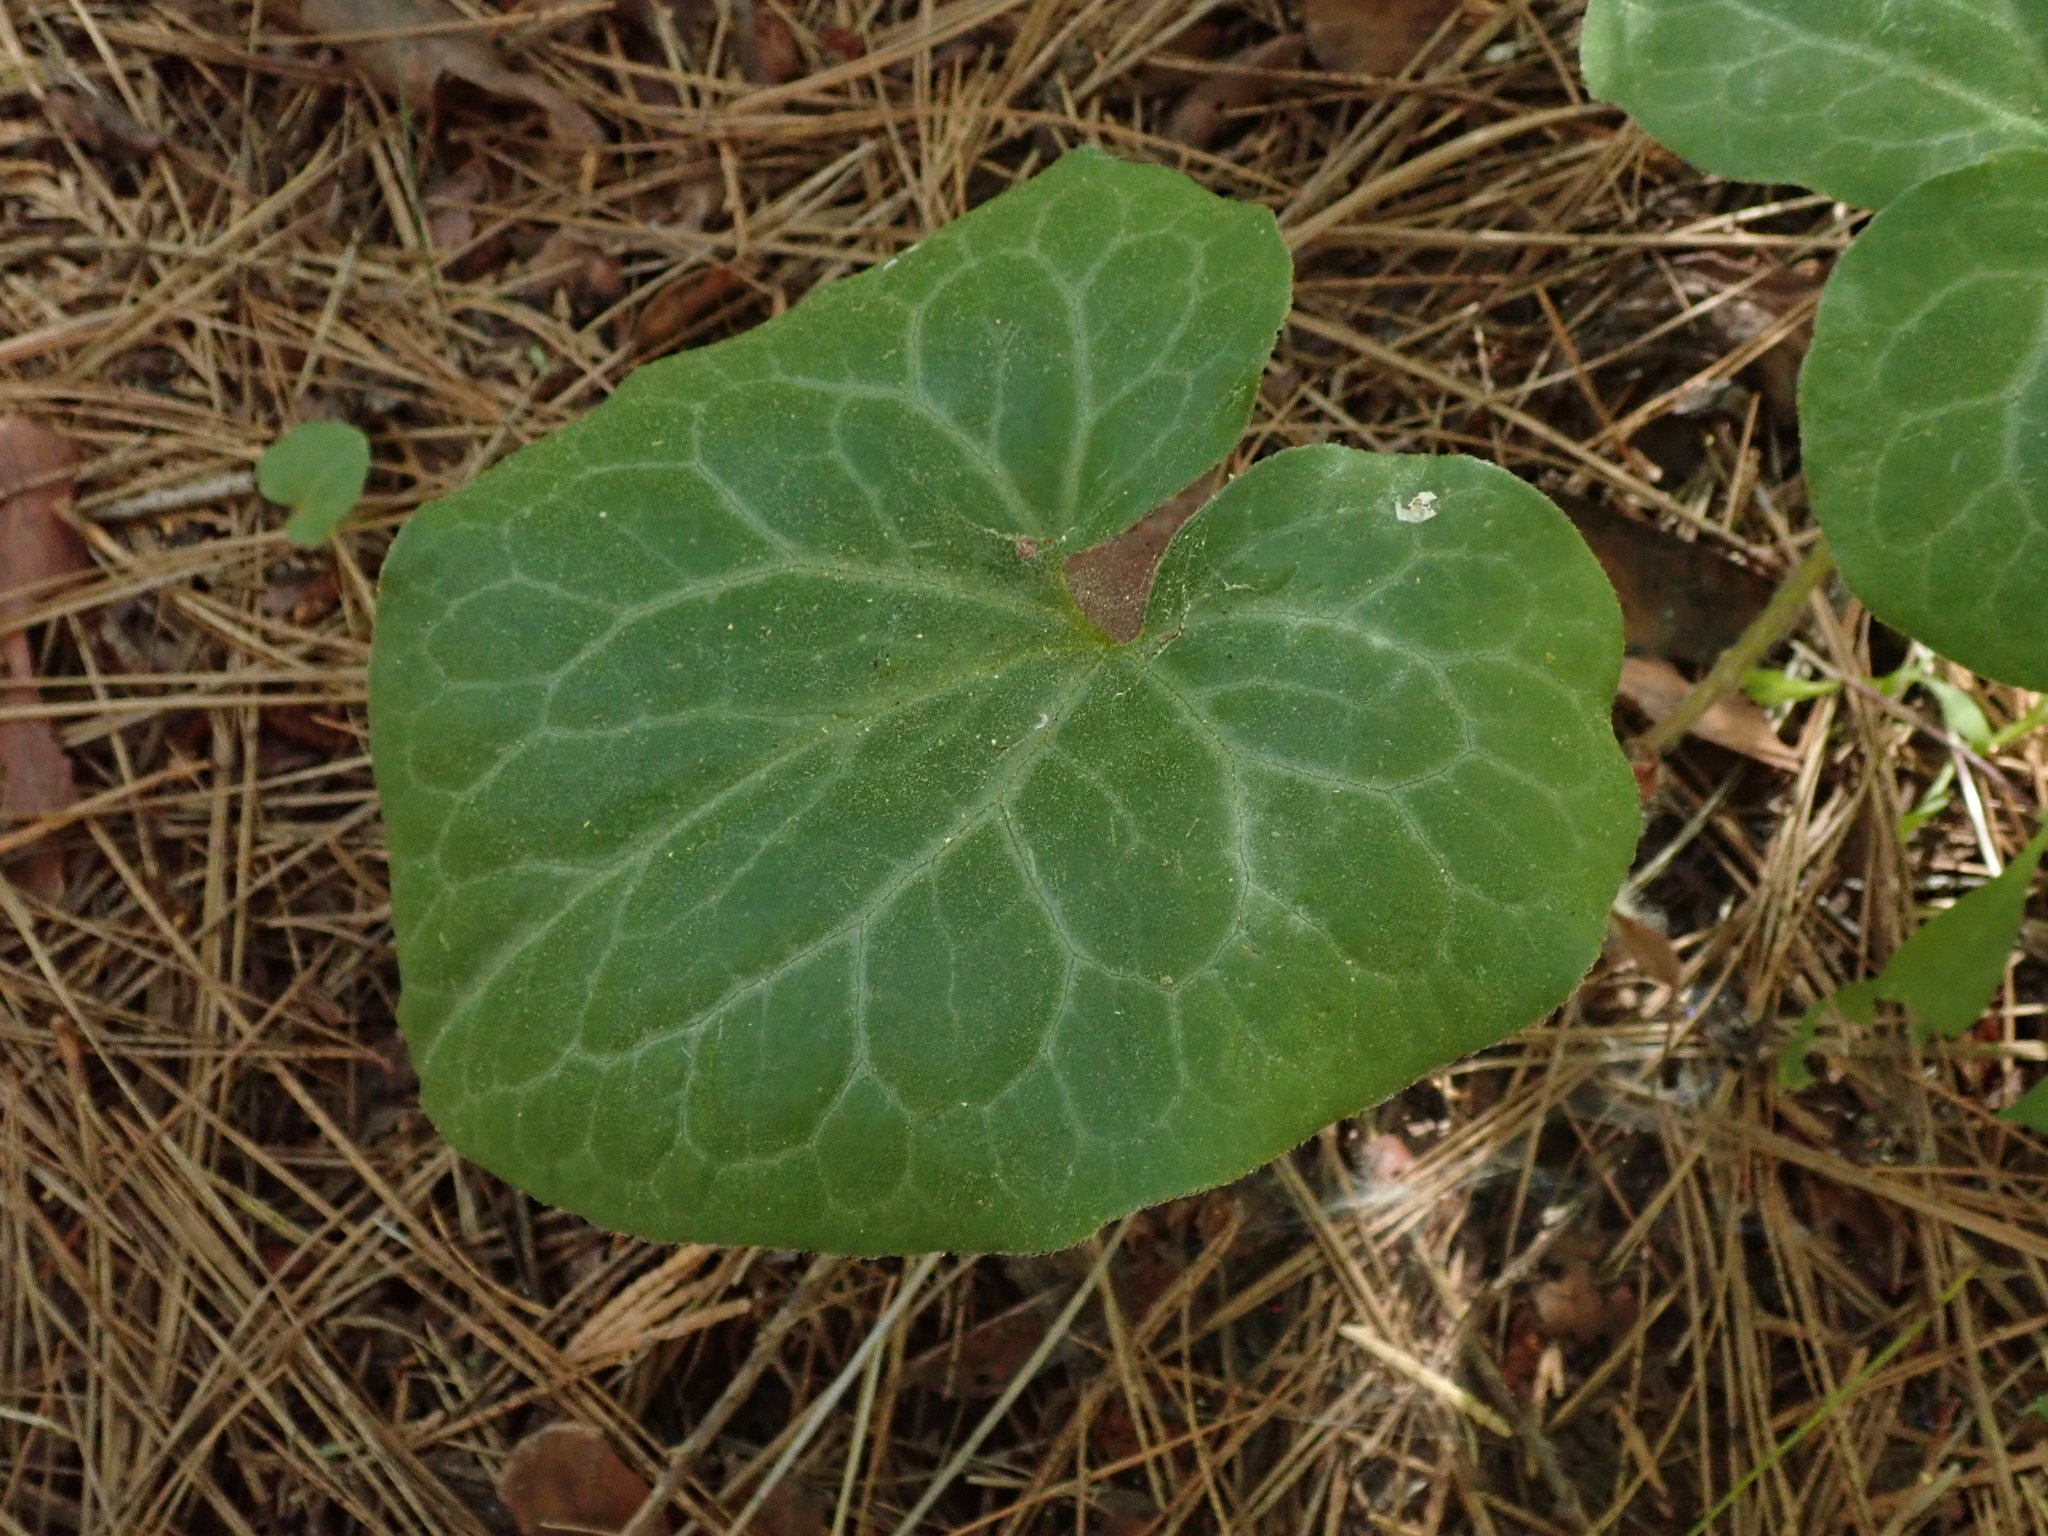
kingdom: Plantae
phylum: Tracheophyta
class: Magnoliopsida
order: Piperales
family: Aristolochiaceae
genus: Asarum
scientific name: Asarum hartwegii
